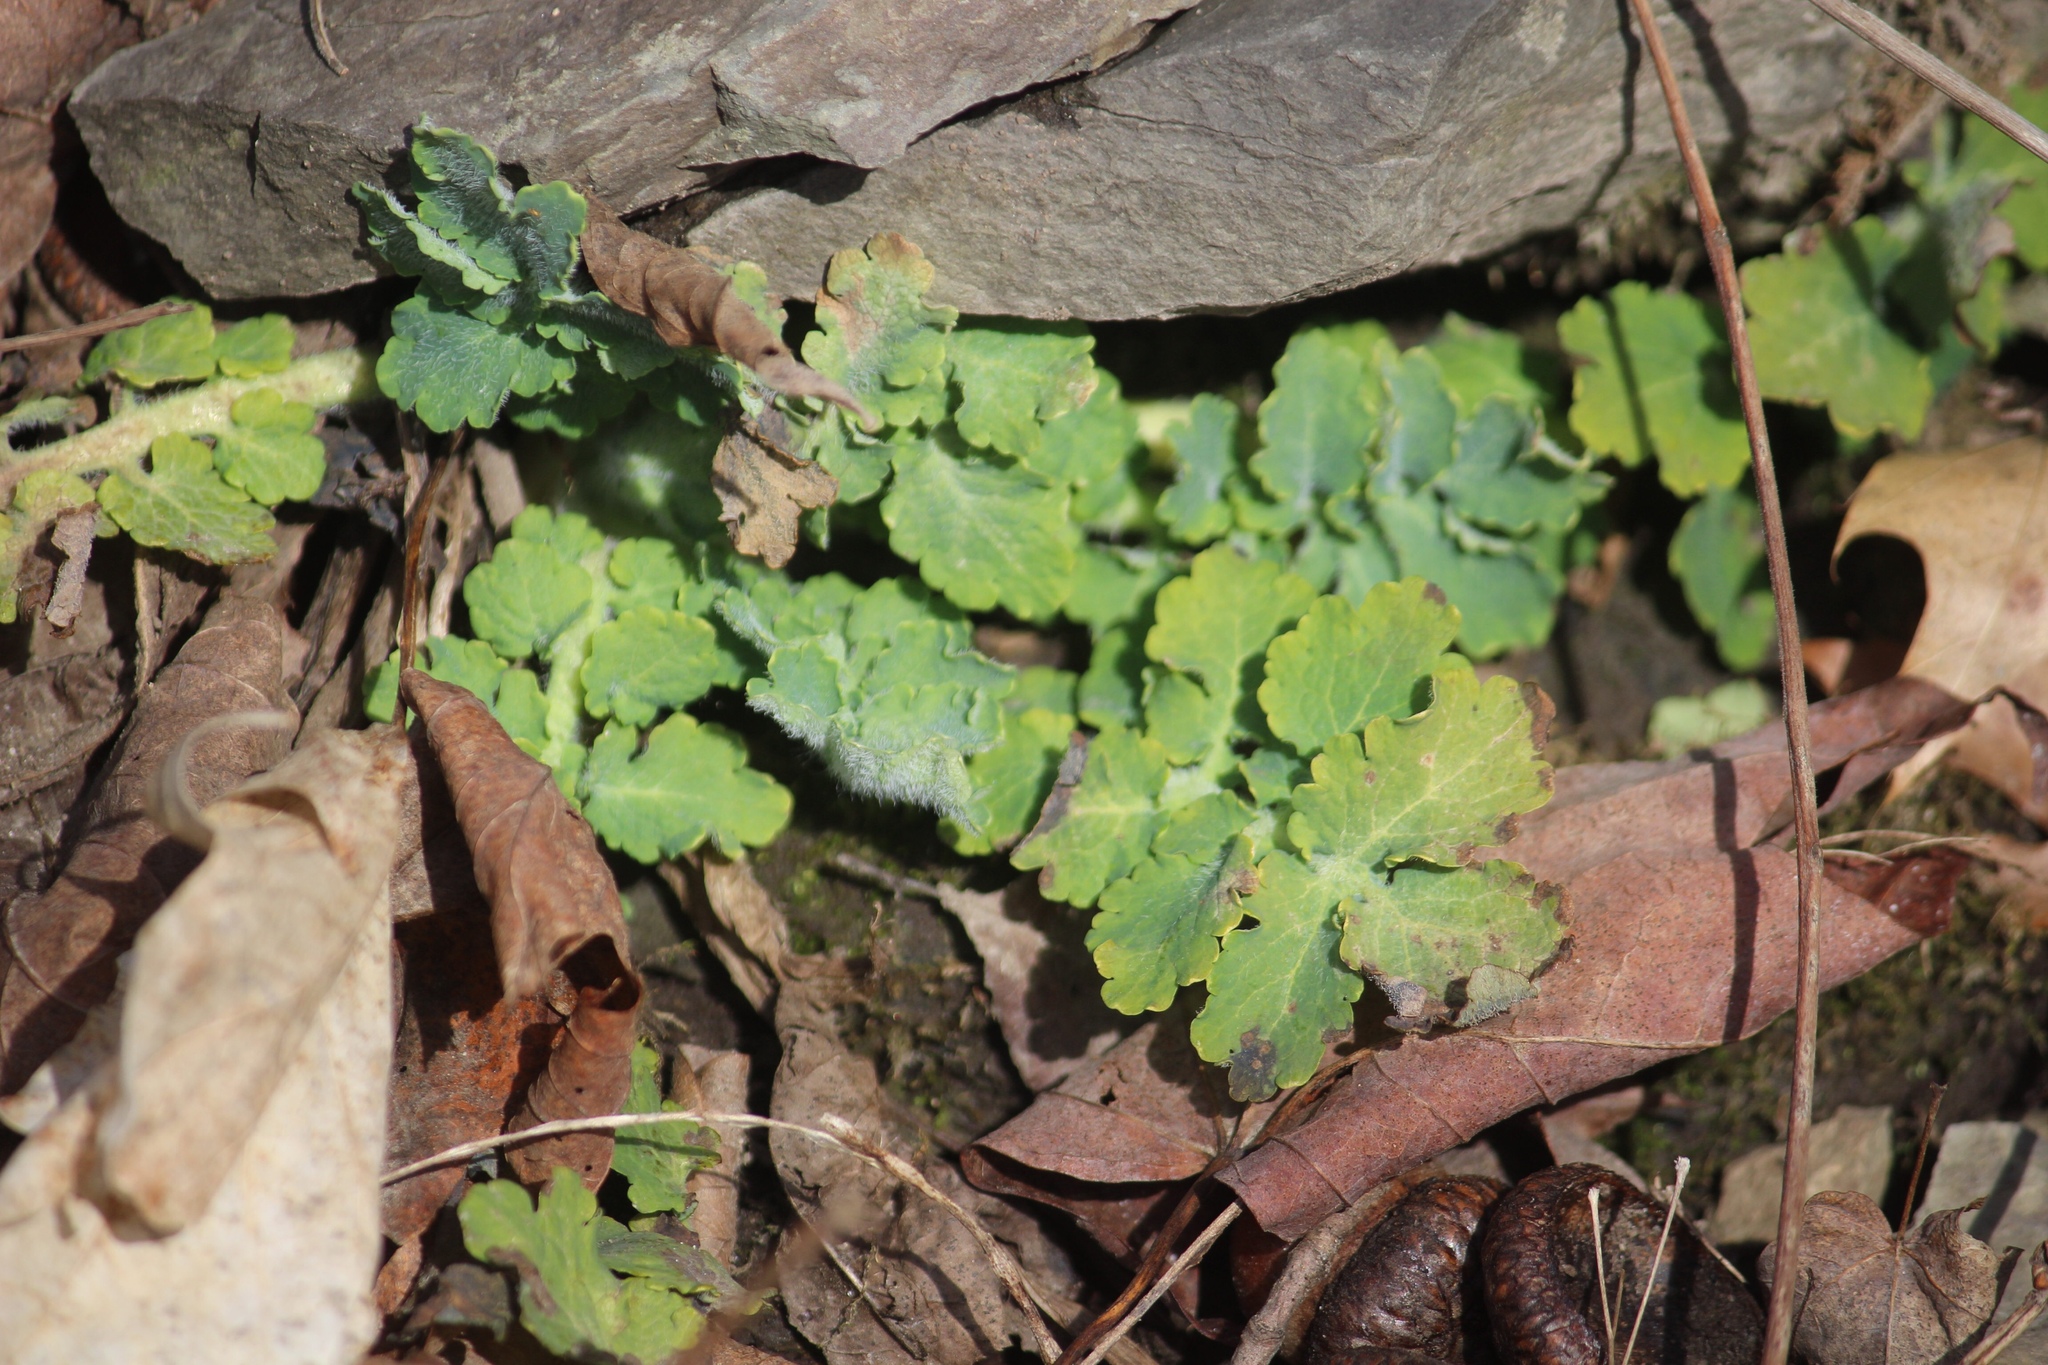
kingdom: Plantae
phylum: Tracheophyta
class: Magnoliopsida
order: Ranunculales
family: Papaveraceae
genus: Chelidonium
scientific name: Chelidonium majus
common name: Greater celandine
